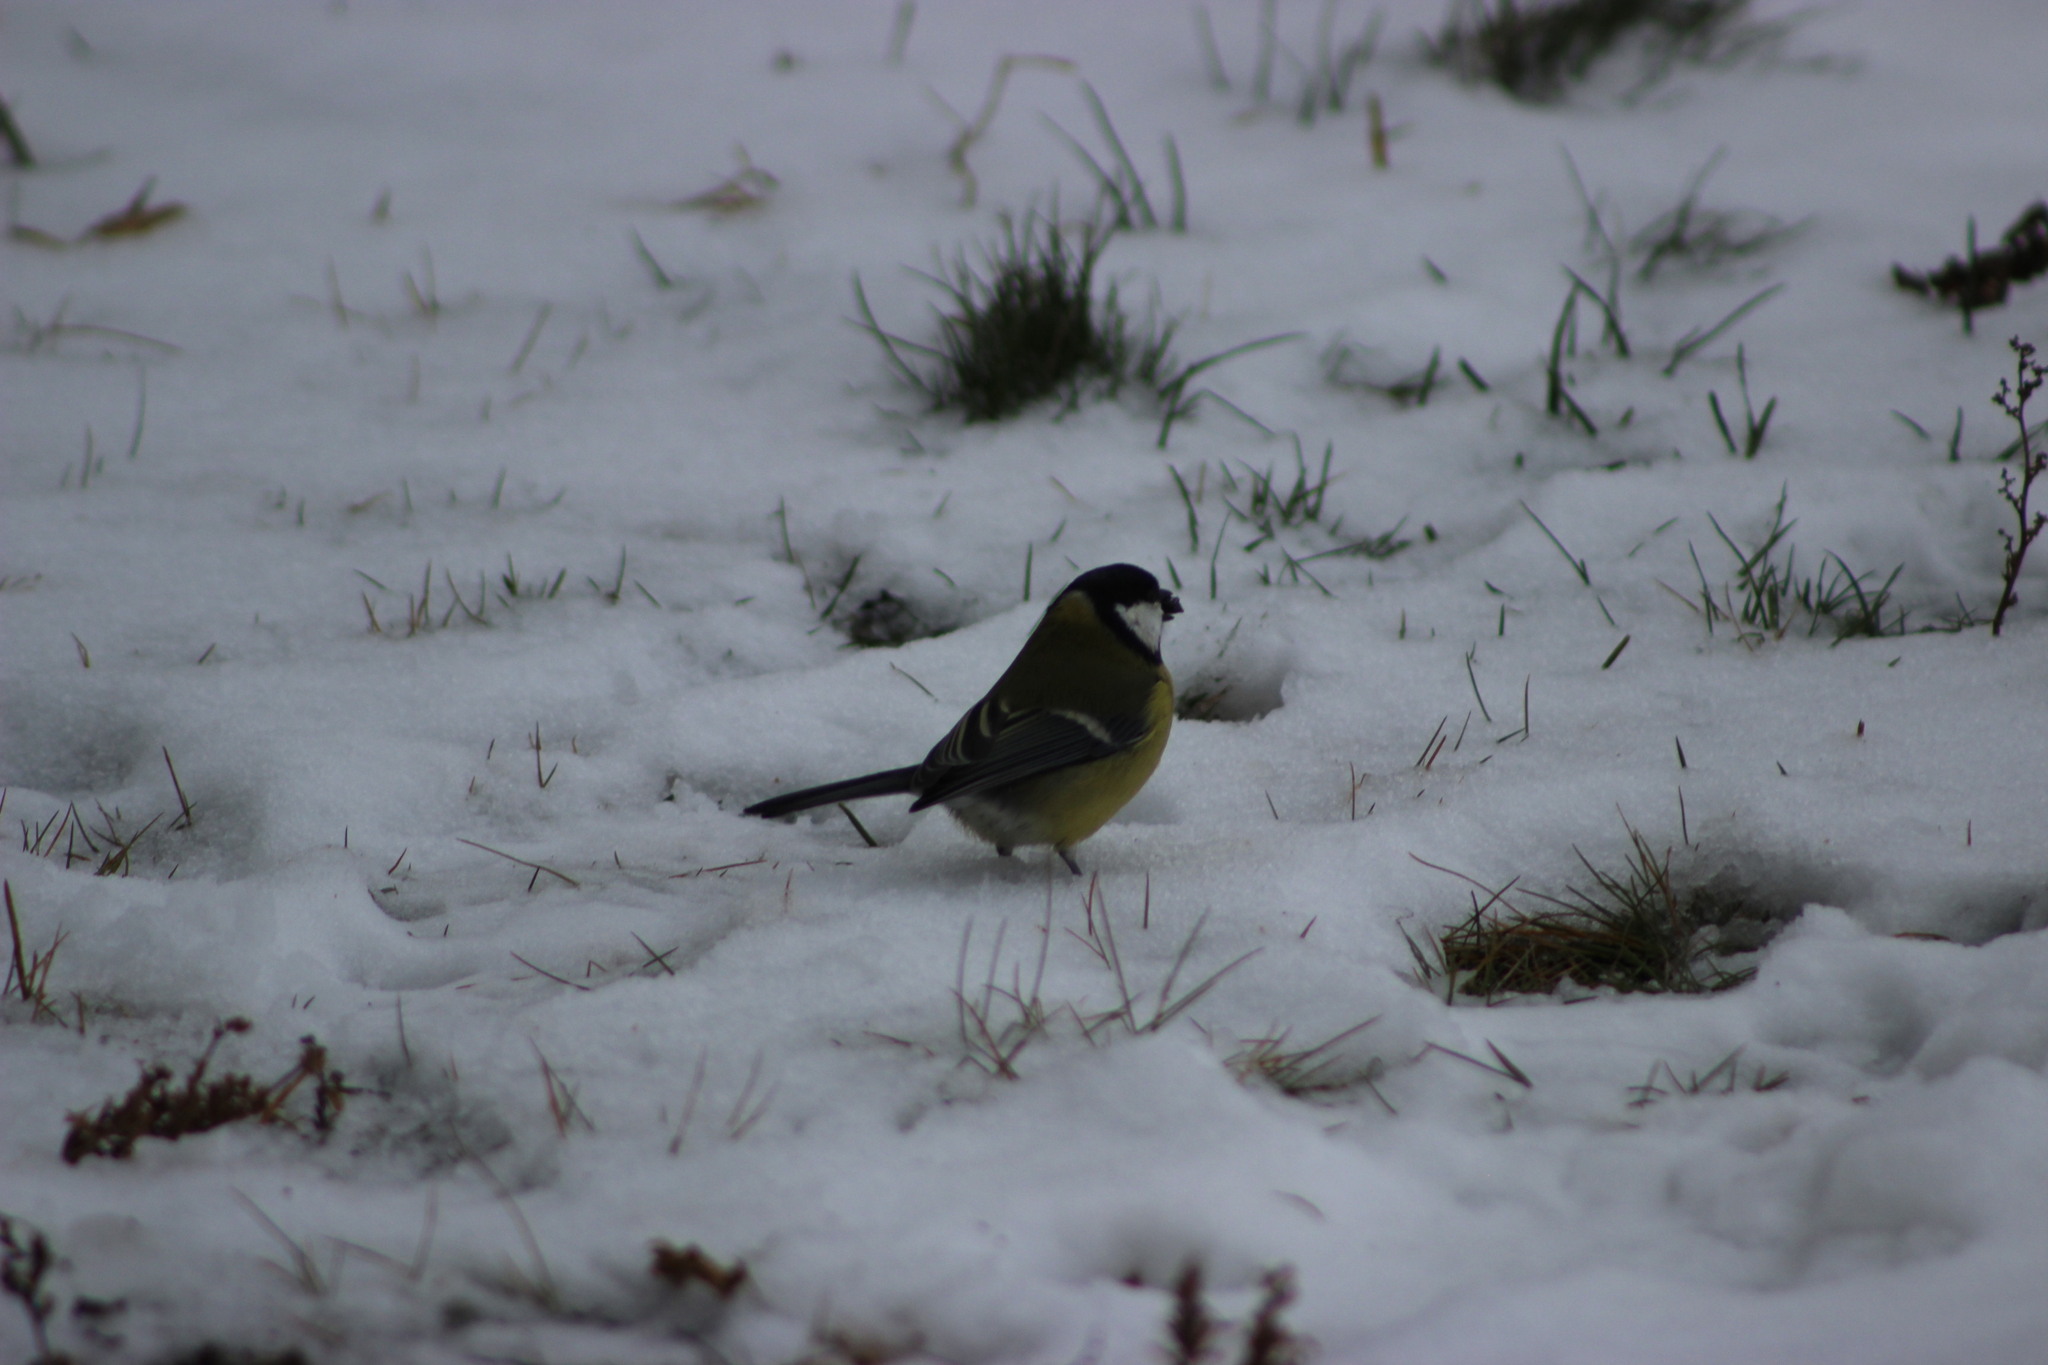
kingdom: Animalia
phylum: Chordata
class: Aves
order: Passeriformes
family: Paridae
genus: Parus
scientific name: Parus major
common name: Great tit
